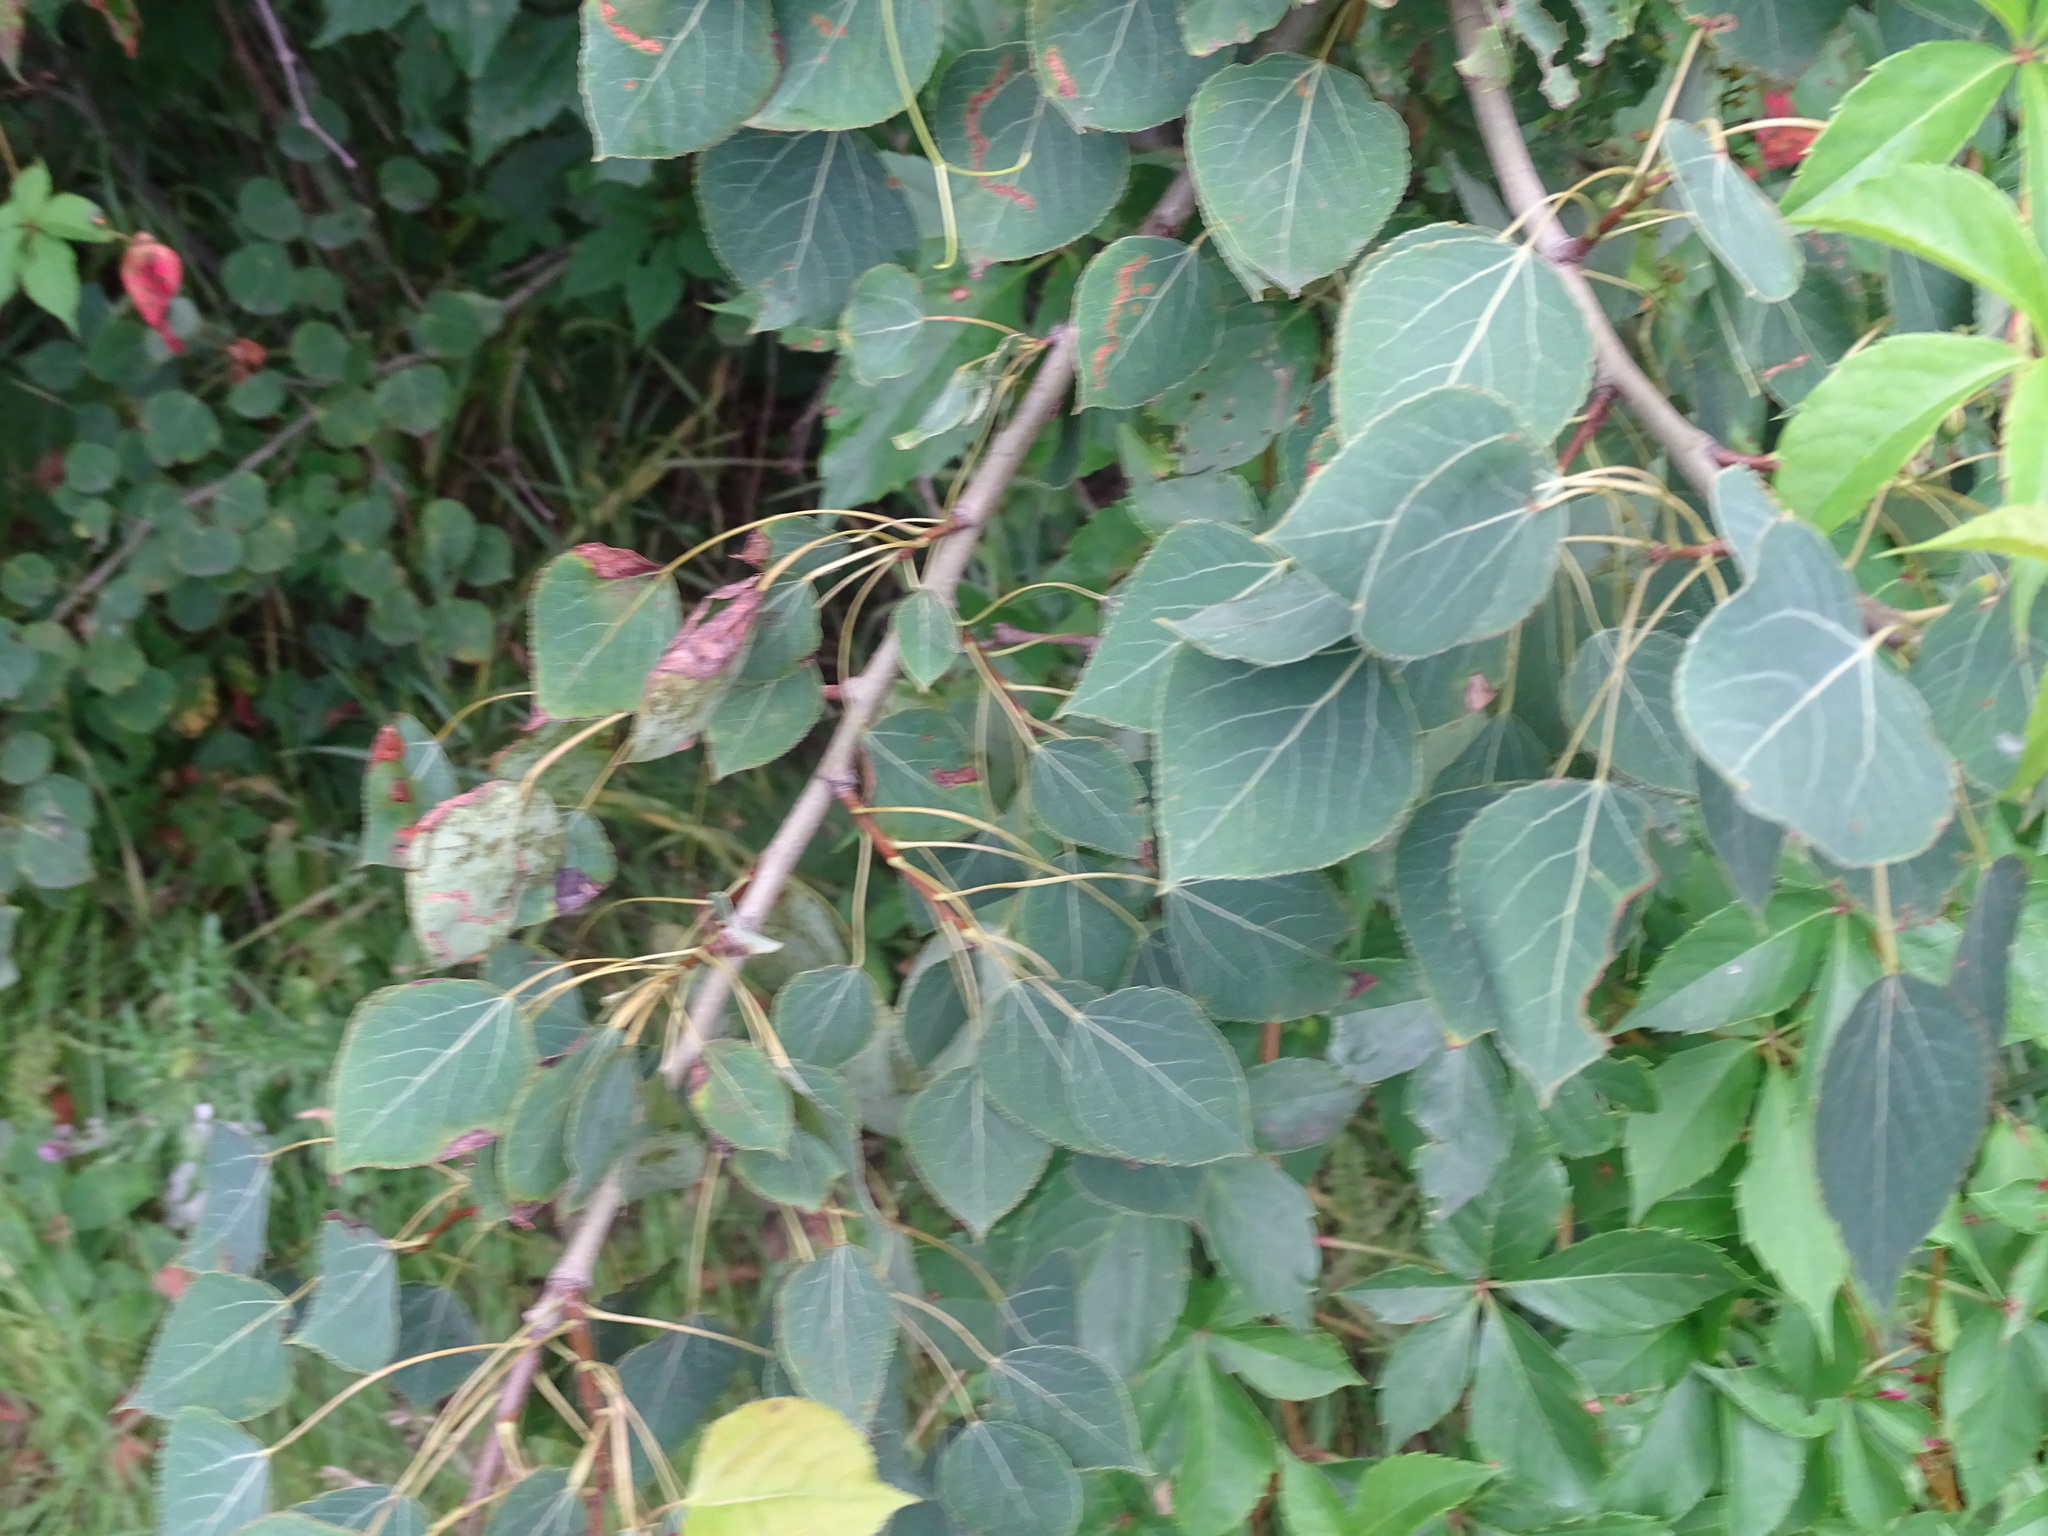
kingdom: Plantae
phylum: Tracheophyta
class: Magnoliopsida
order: Malpighiales
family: Salicaceae
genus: Populus
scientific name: Populus tremuloides
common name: Quaking aspen
